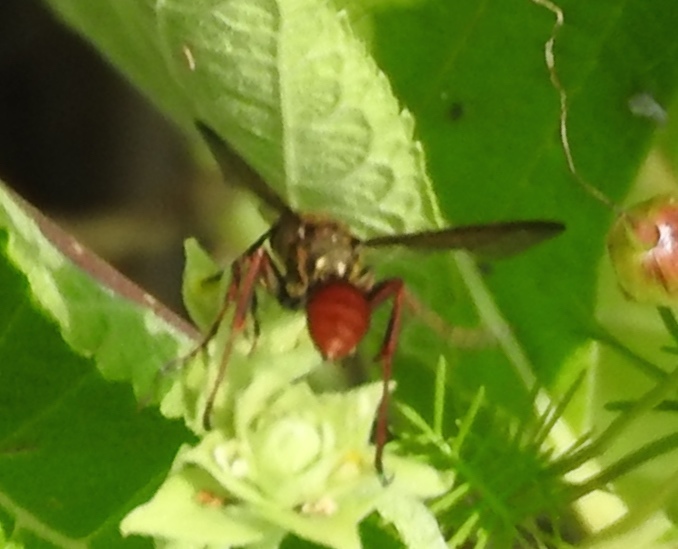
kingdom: Animalia
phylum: Arthropoda
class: Insecta
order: Hymenoptera
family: Sphecidae
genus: Isodontia
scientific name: Isodontia
